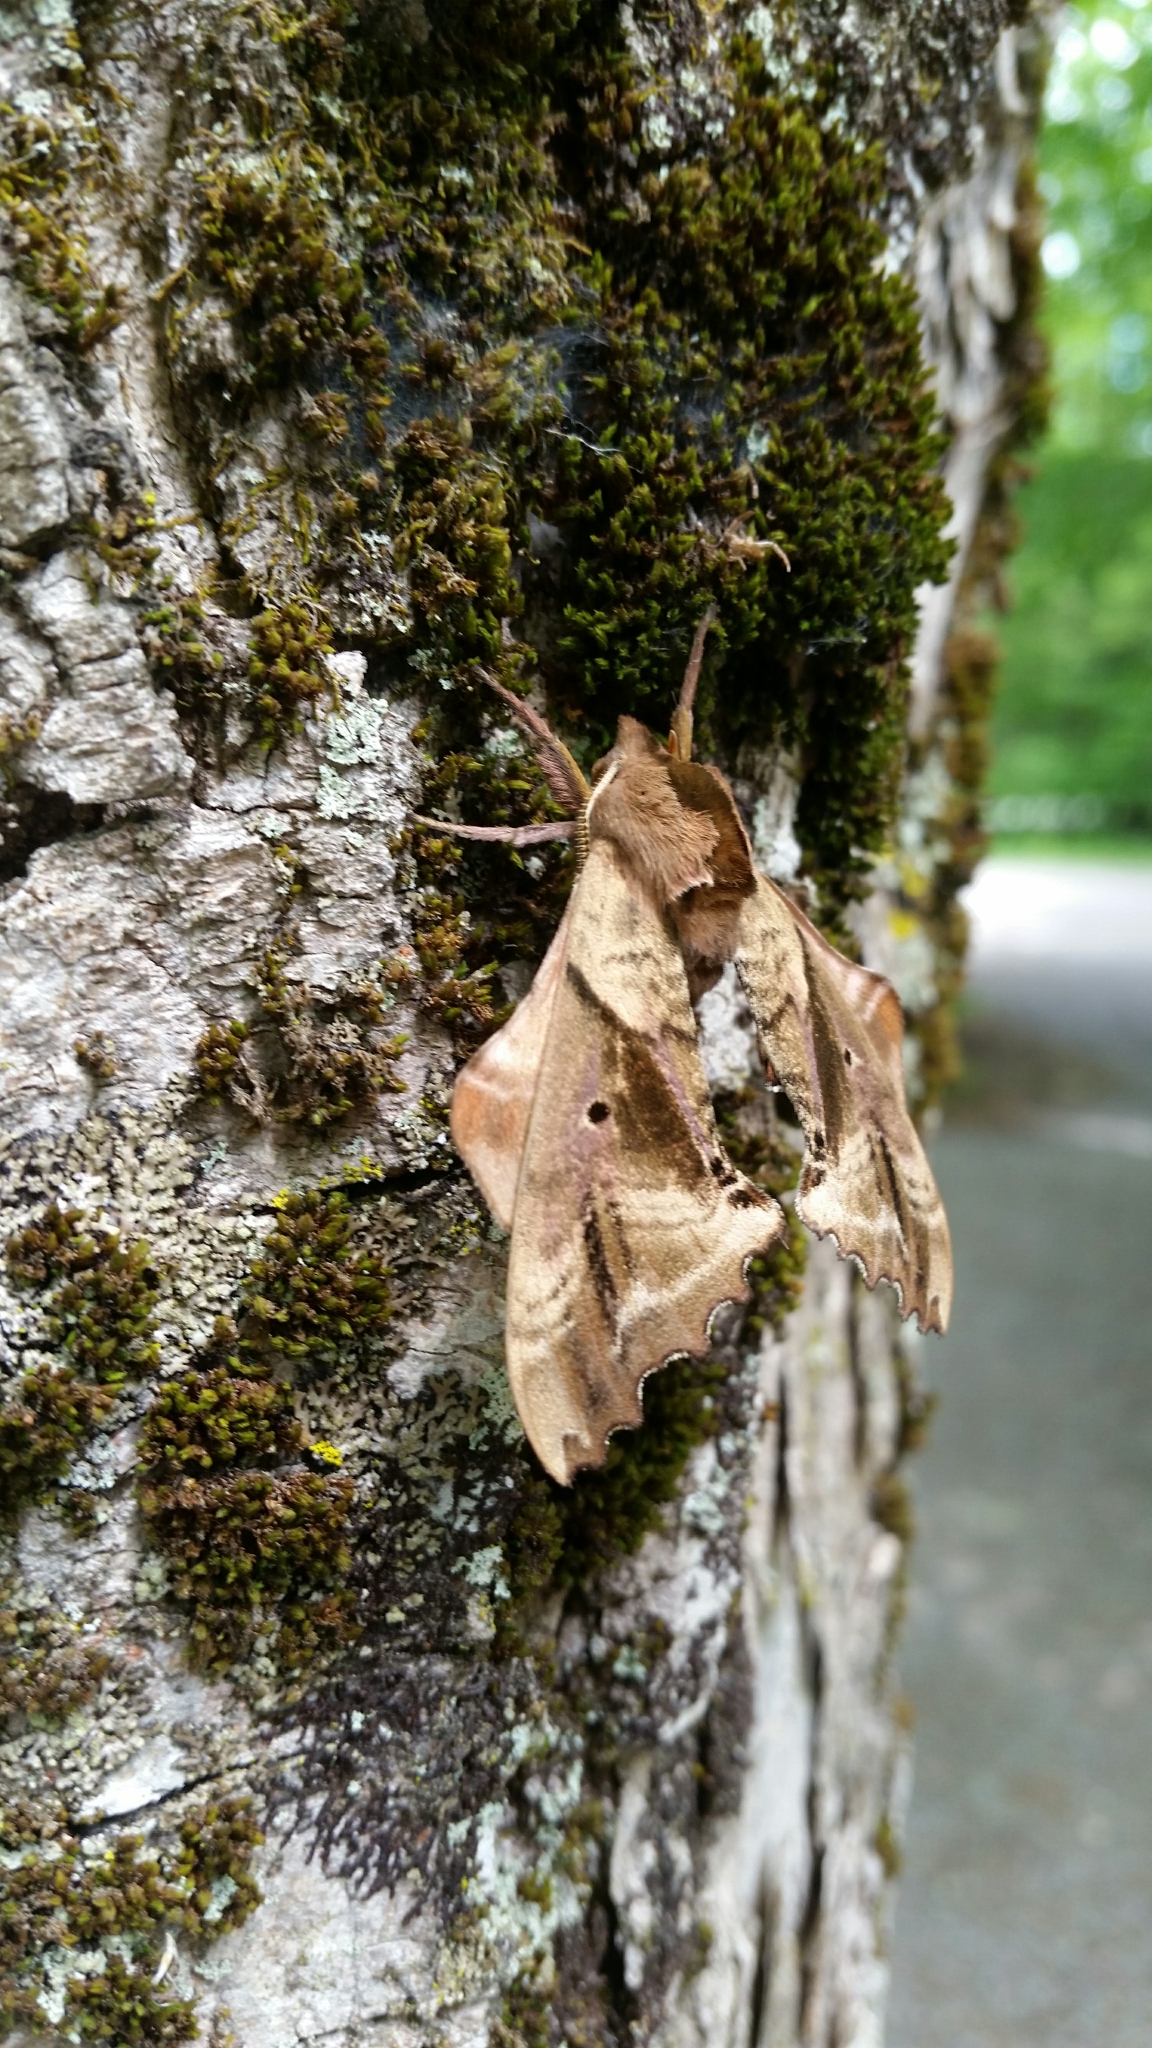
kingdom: Animalia
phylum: Arthropoda
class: Insecta
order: Lepidoptera
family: Sphingidae
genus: Paonias
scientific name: Paonias excaecata
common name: Blind-eyed sphinx
